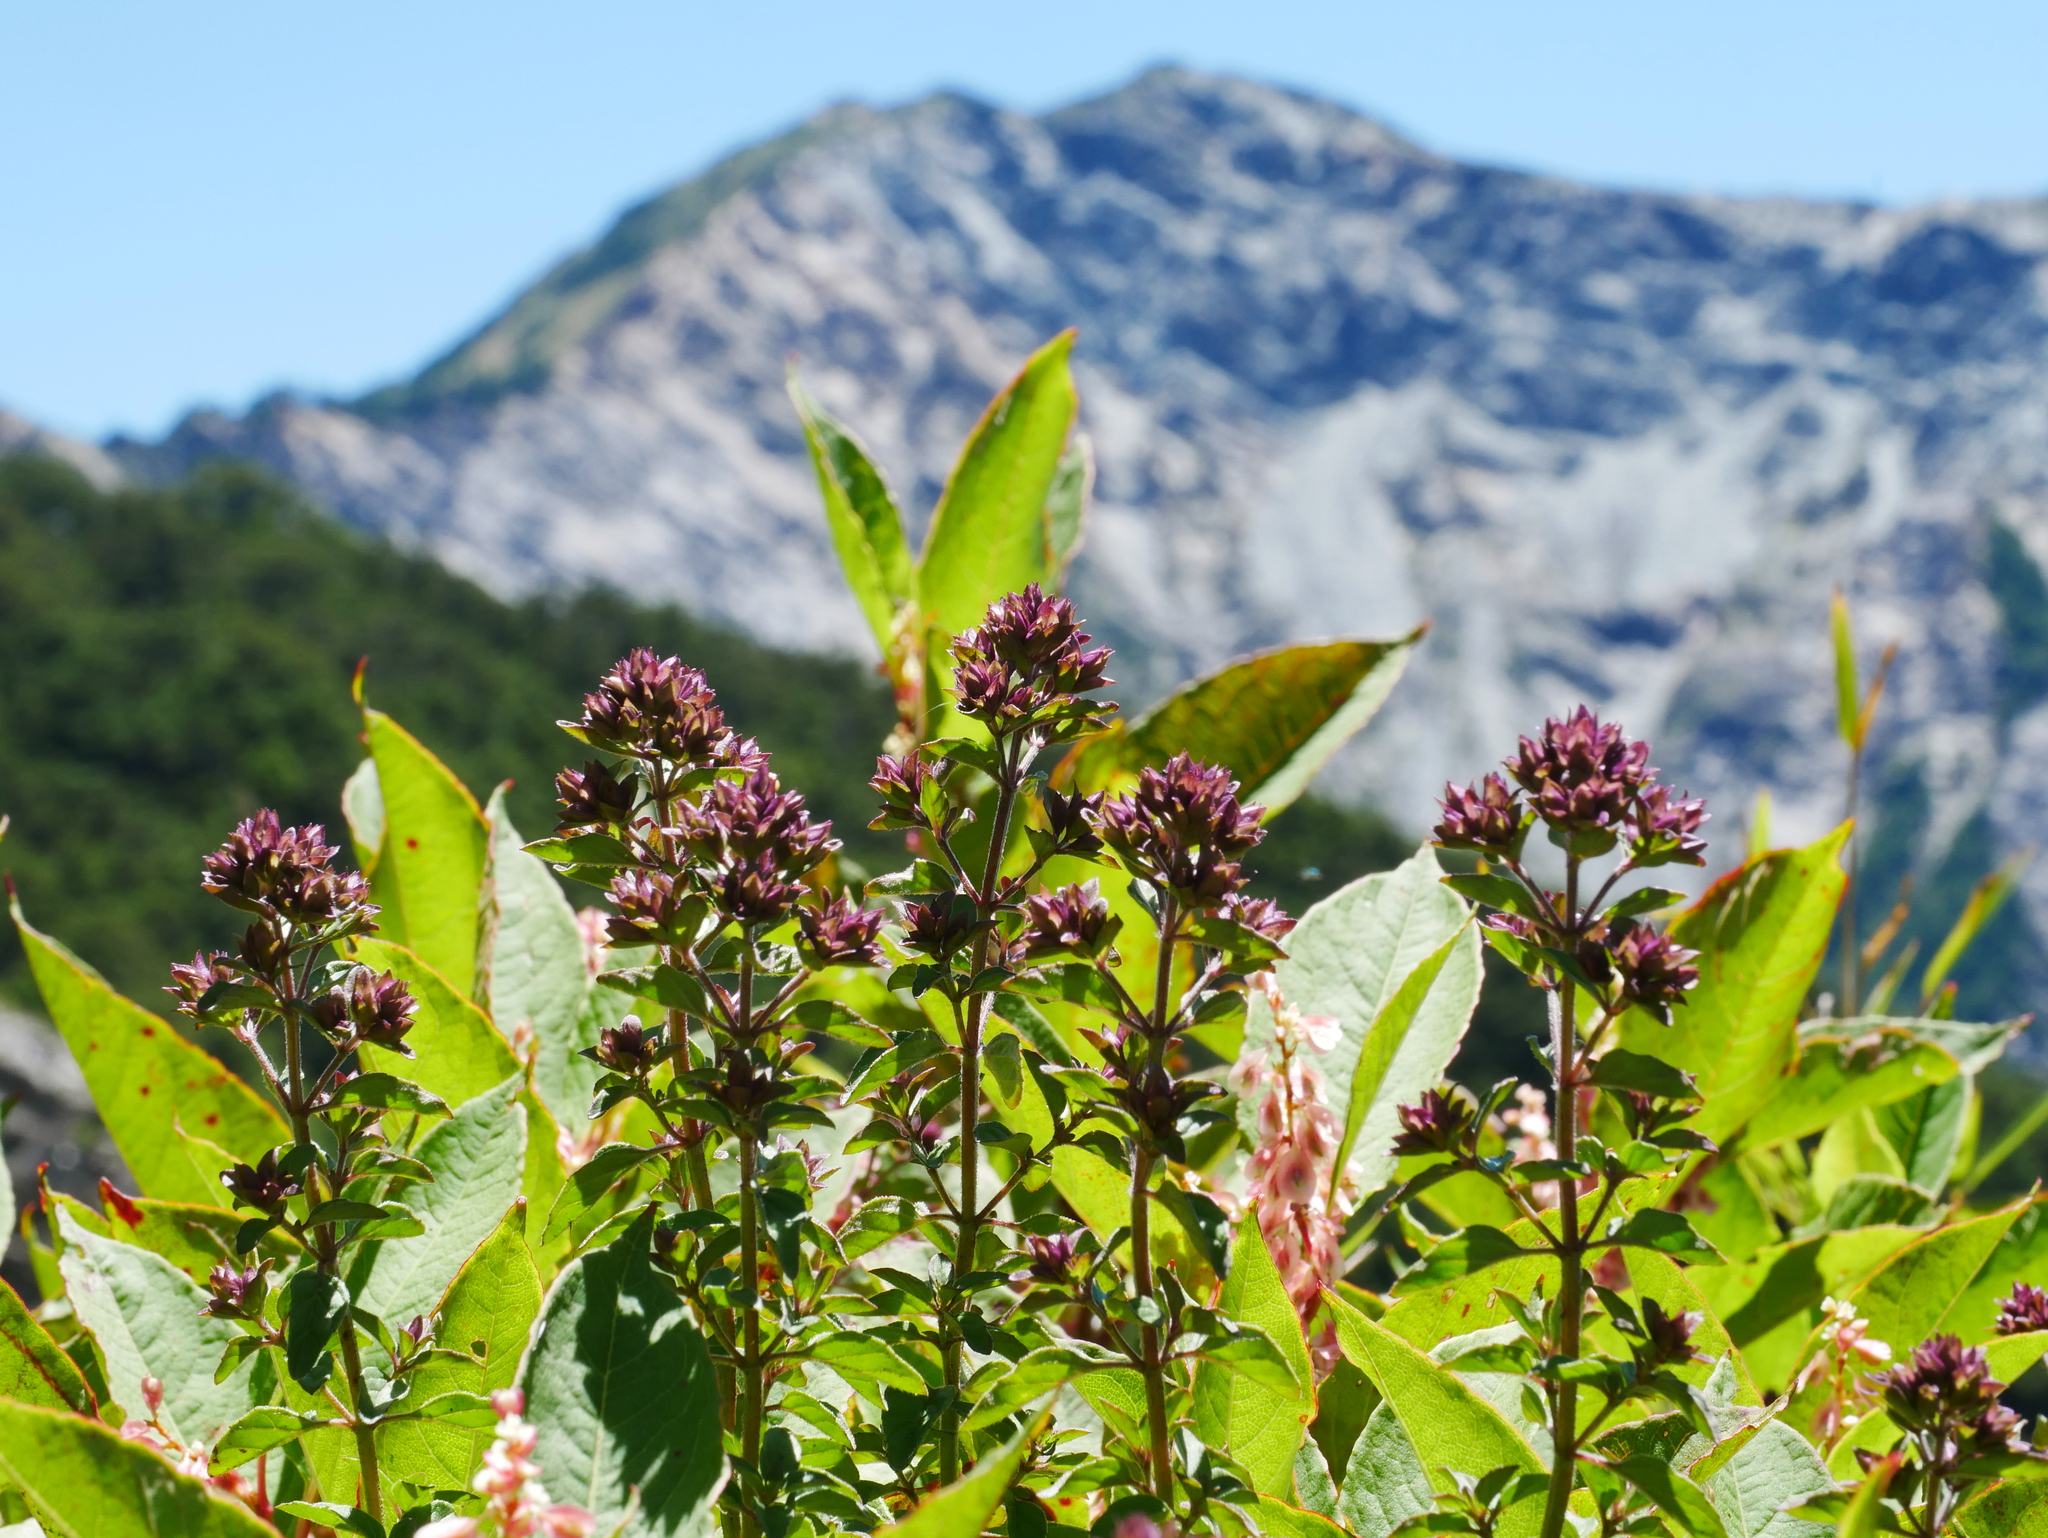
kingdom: Plantae
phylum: Tracheophyta
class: Magnoliopsida
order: Lamiales
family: Lamiaceae
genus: Origanum
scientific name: Origanum vulgare
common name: Wild marjoram
